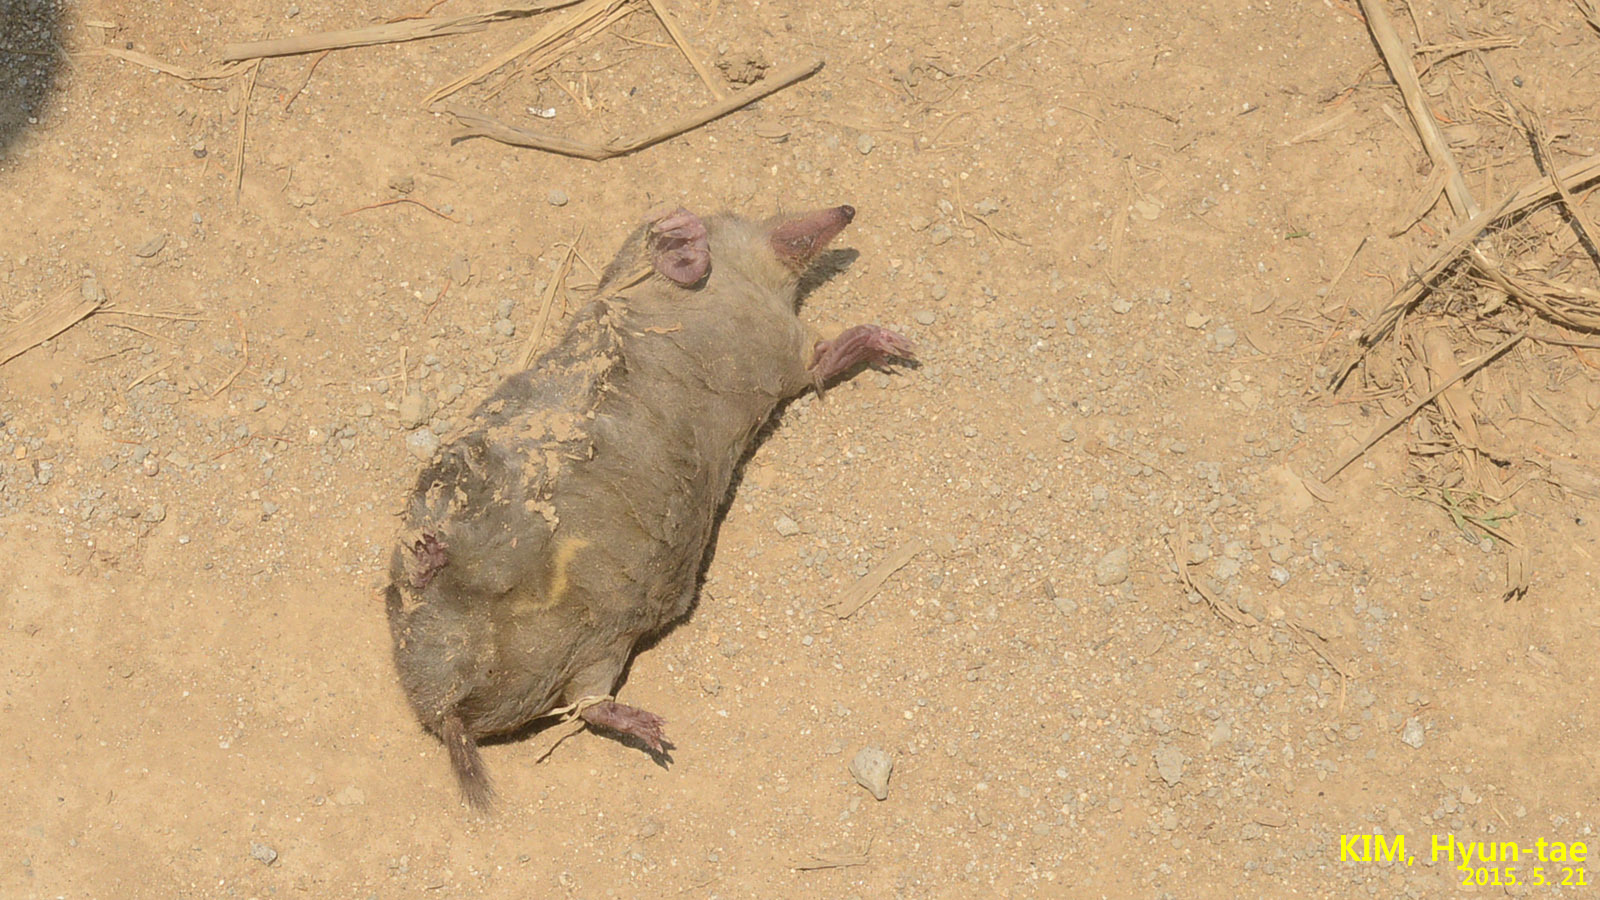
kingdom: Animalia
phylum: Chordata
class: Mammalia
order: Soricomorpha
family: Talpidae
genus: Mogera
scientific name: Mogera wogura
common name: Japanese mole
